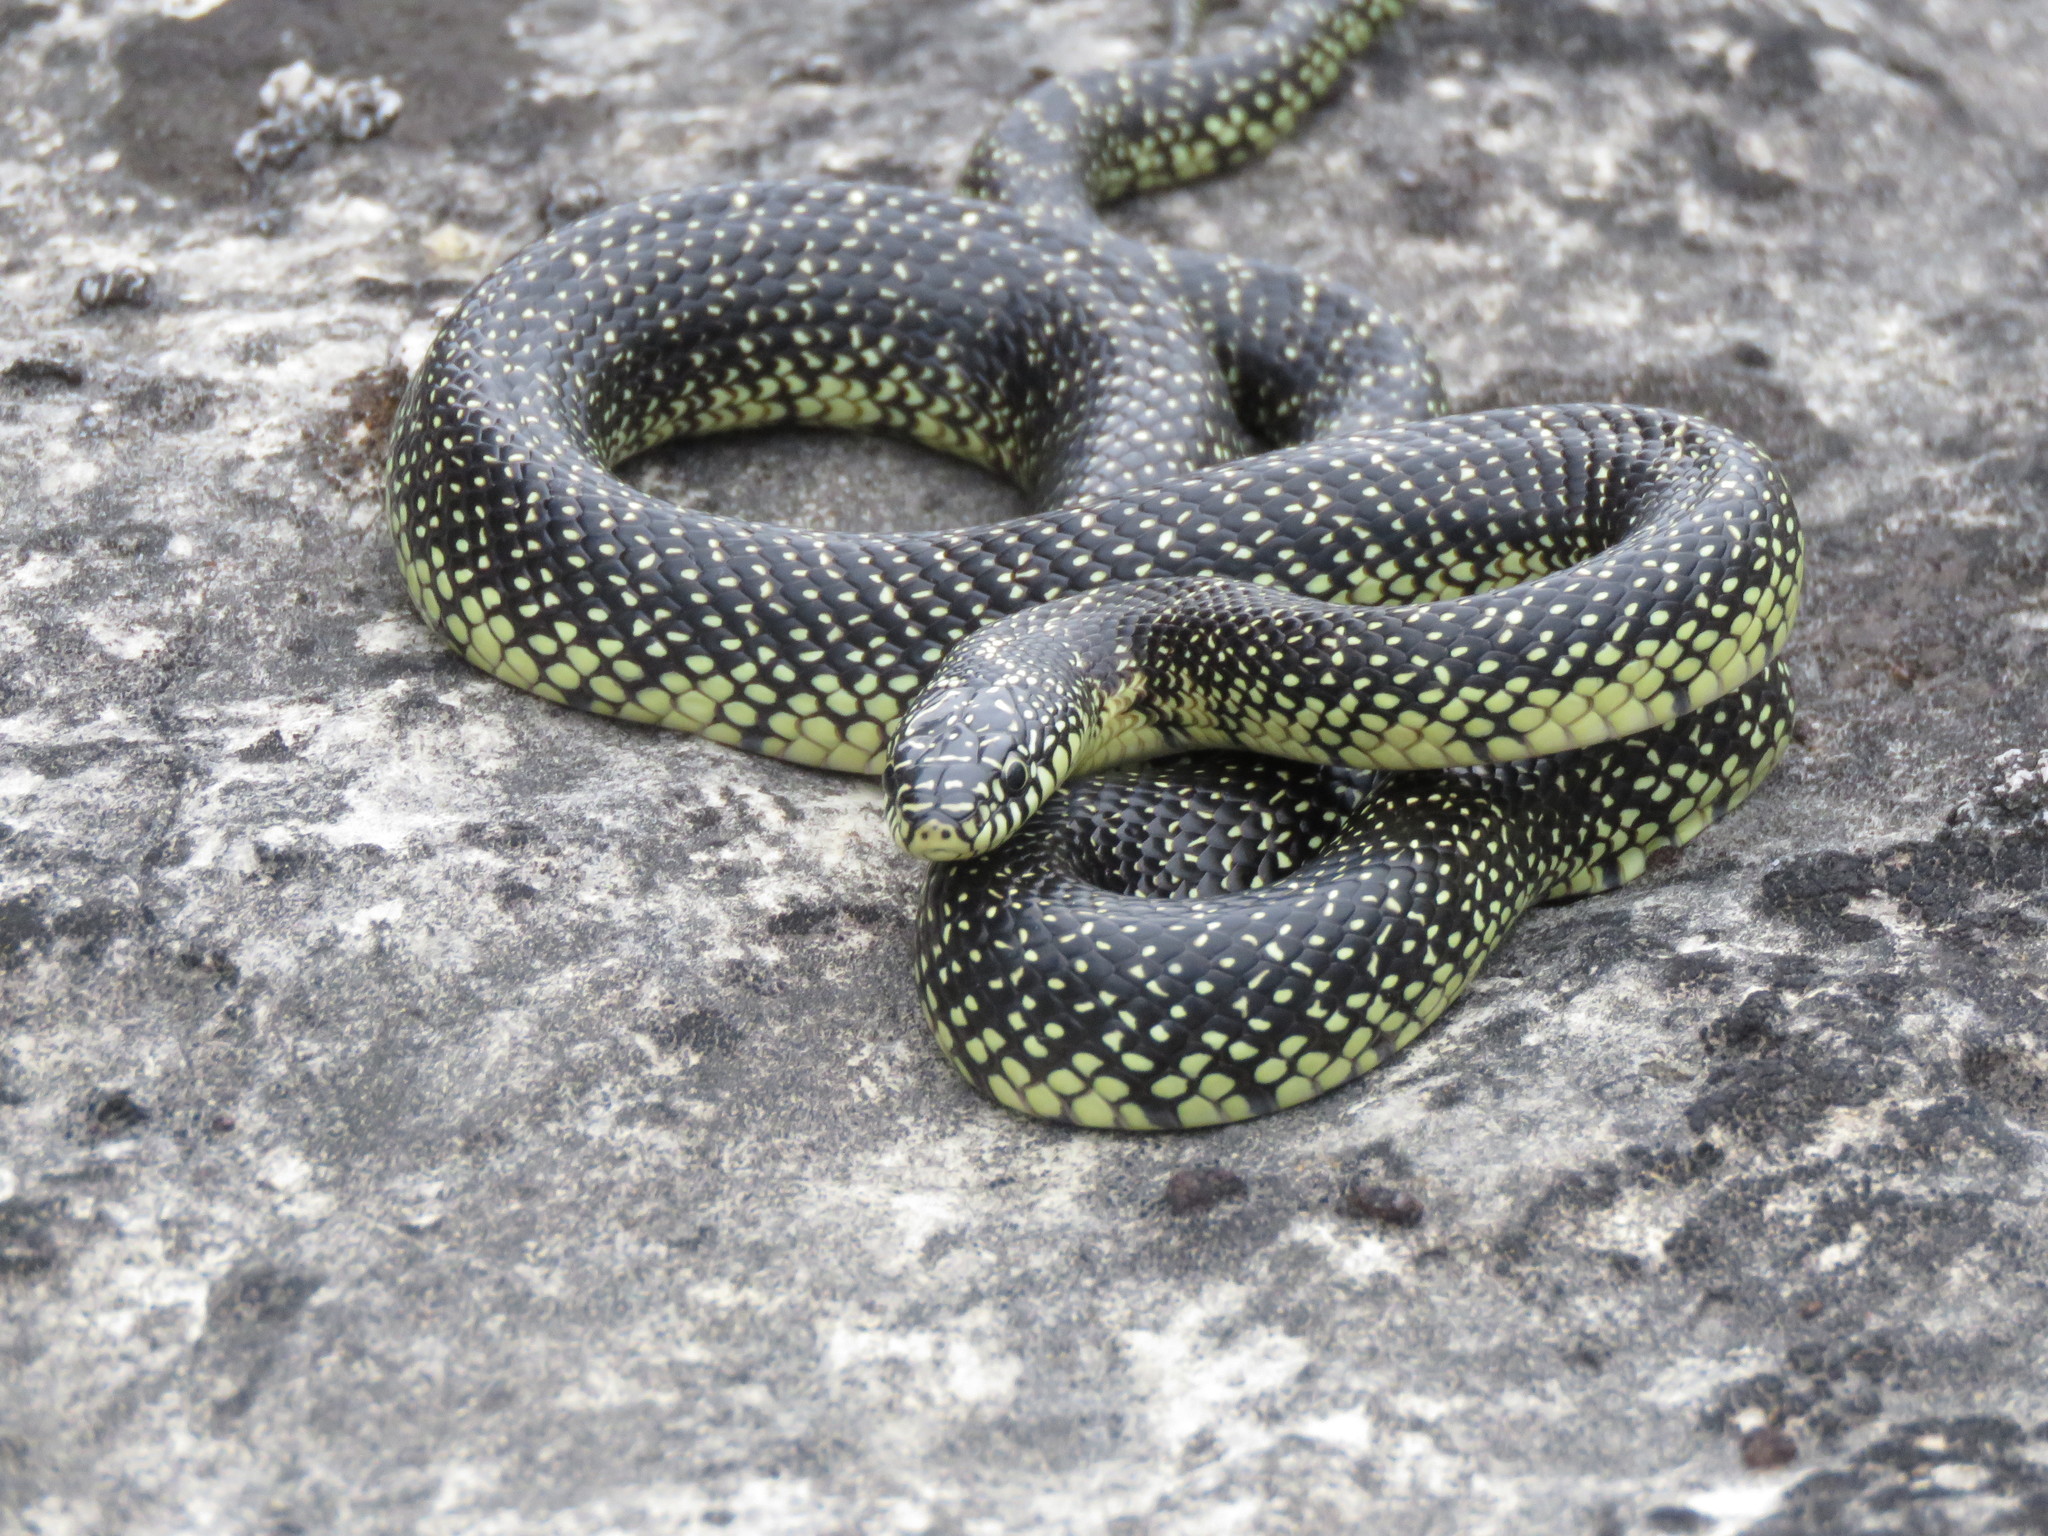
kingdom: Animalia
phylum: Chordata
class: Squamata
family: Colubridae
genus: Lampropeltis
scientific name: Lampropeltis holbrooki
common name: Speckled kingsnake
